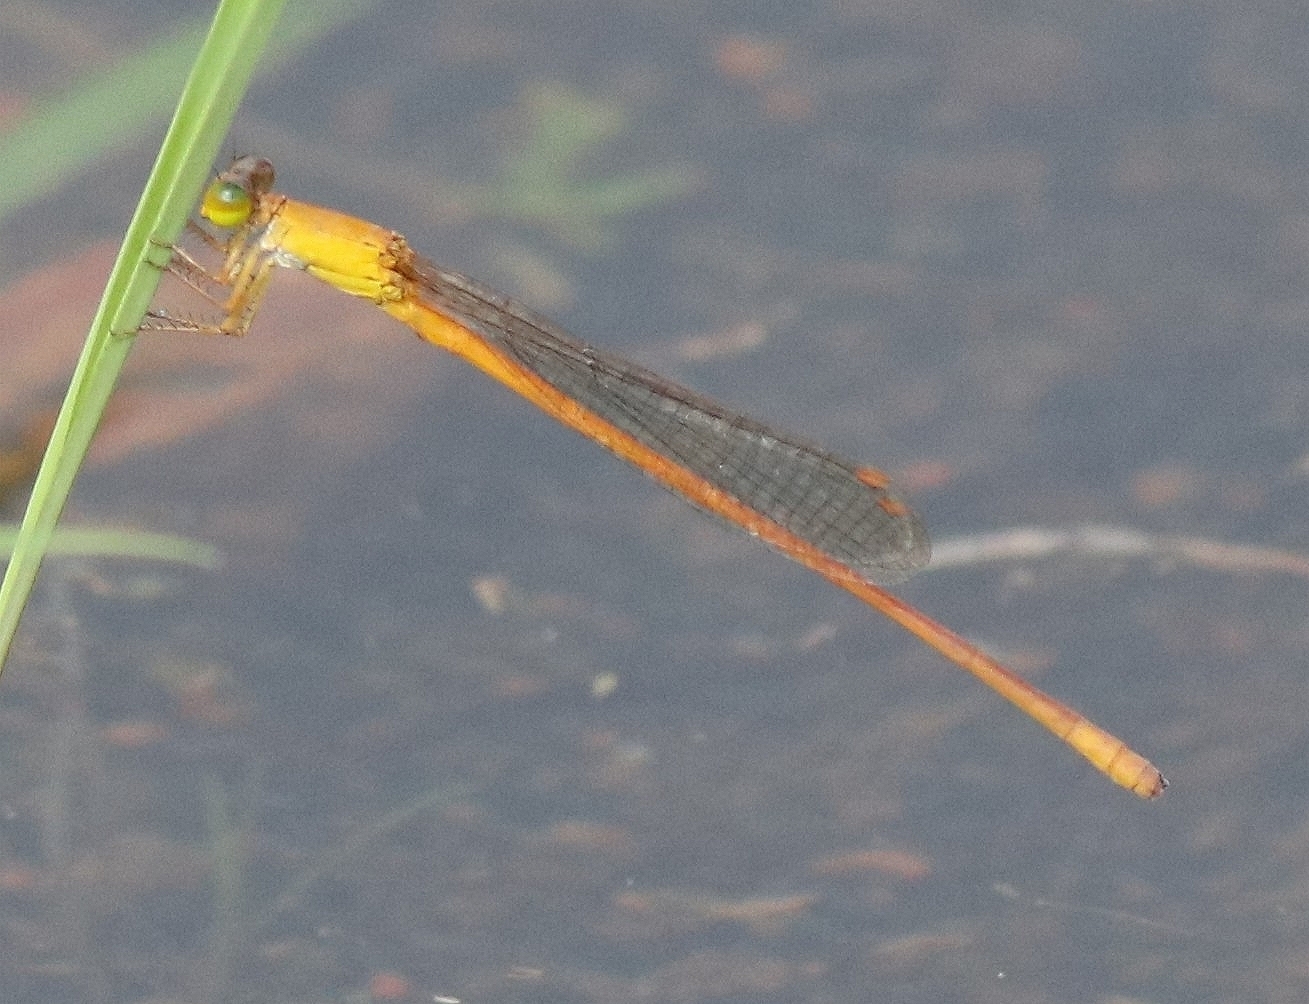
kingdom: Animalia
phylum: Arthropoda
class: Insecta
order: Odonata
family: Coenagrionidae
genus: Ceriagrion
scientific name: Ceriagrion rubiae
